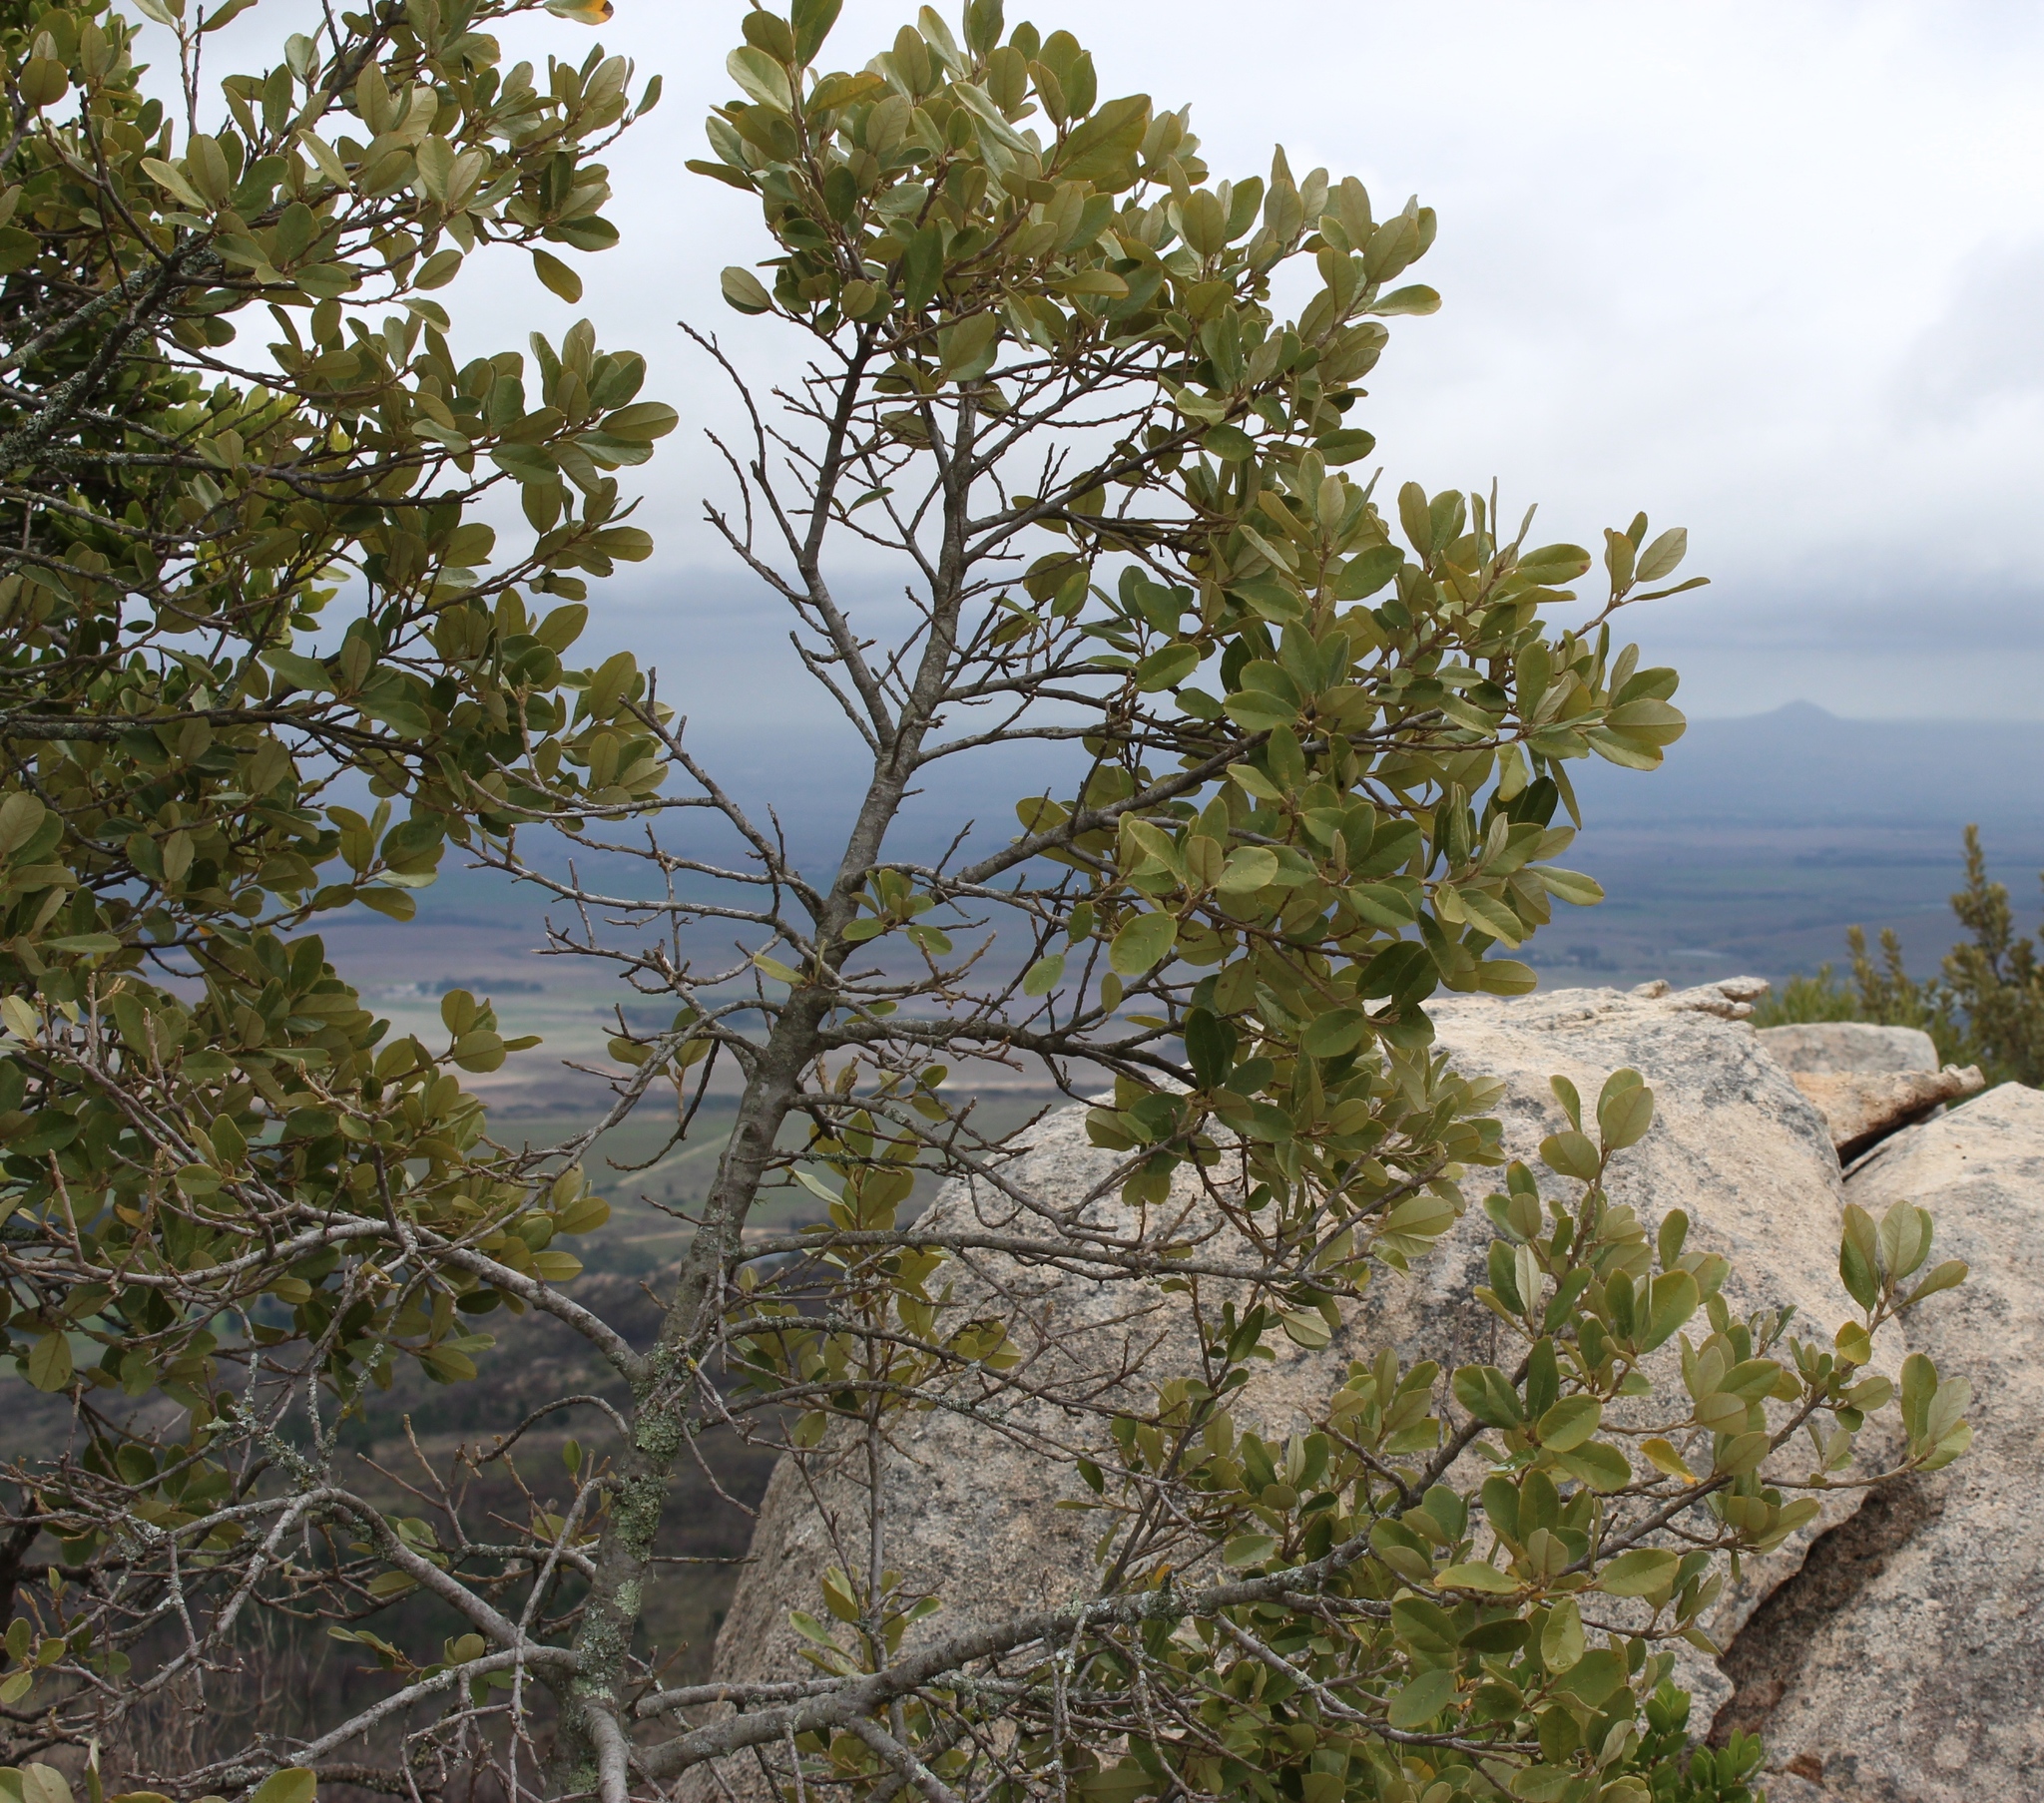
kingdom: Plantae
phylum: Tracheophyta
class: Magnoliopsida
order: Malpighiales
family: Achariaceae
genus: Kiggelaria
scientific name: Kiggelaria africana
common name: Wild peach
